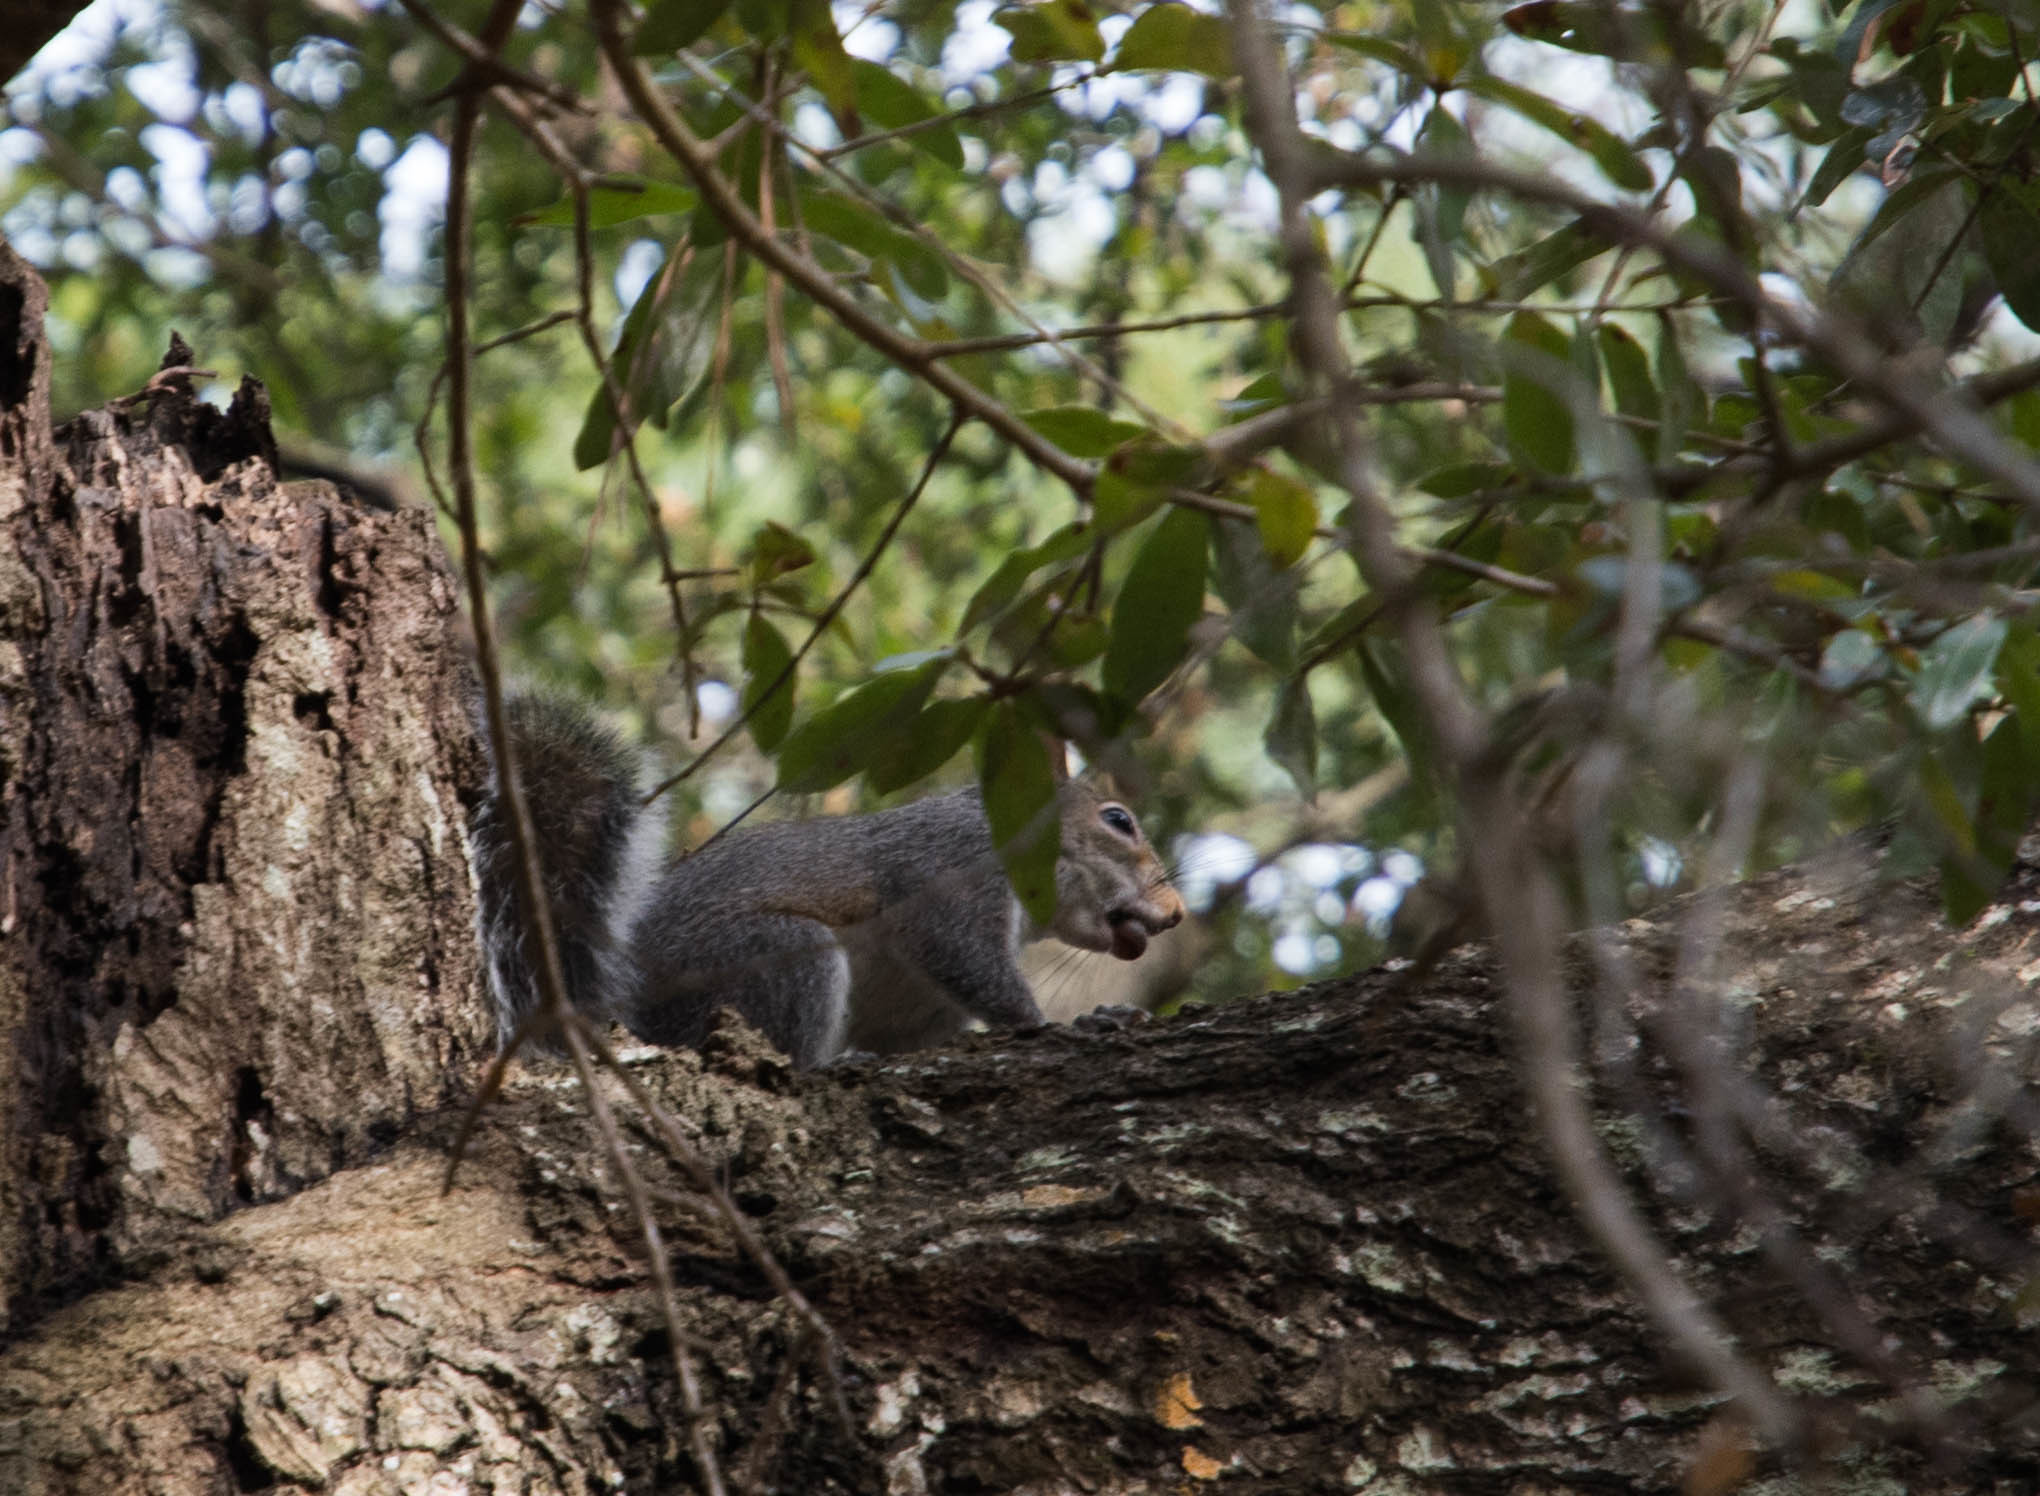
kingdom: Animalia
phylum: Chordata
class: Mammalia
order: Rodentia
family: Sciuridae
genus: Sciurus
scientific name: Sciurus carolinensis
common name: Eastern gray squirrel
